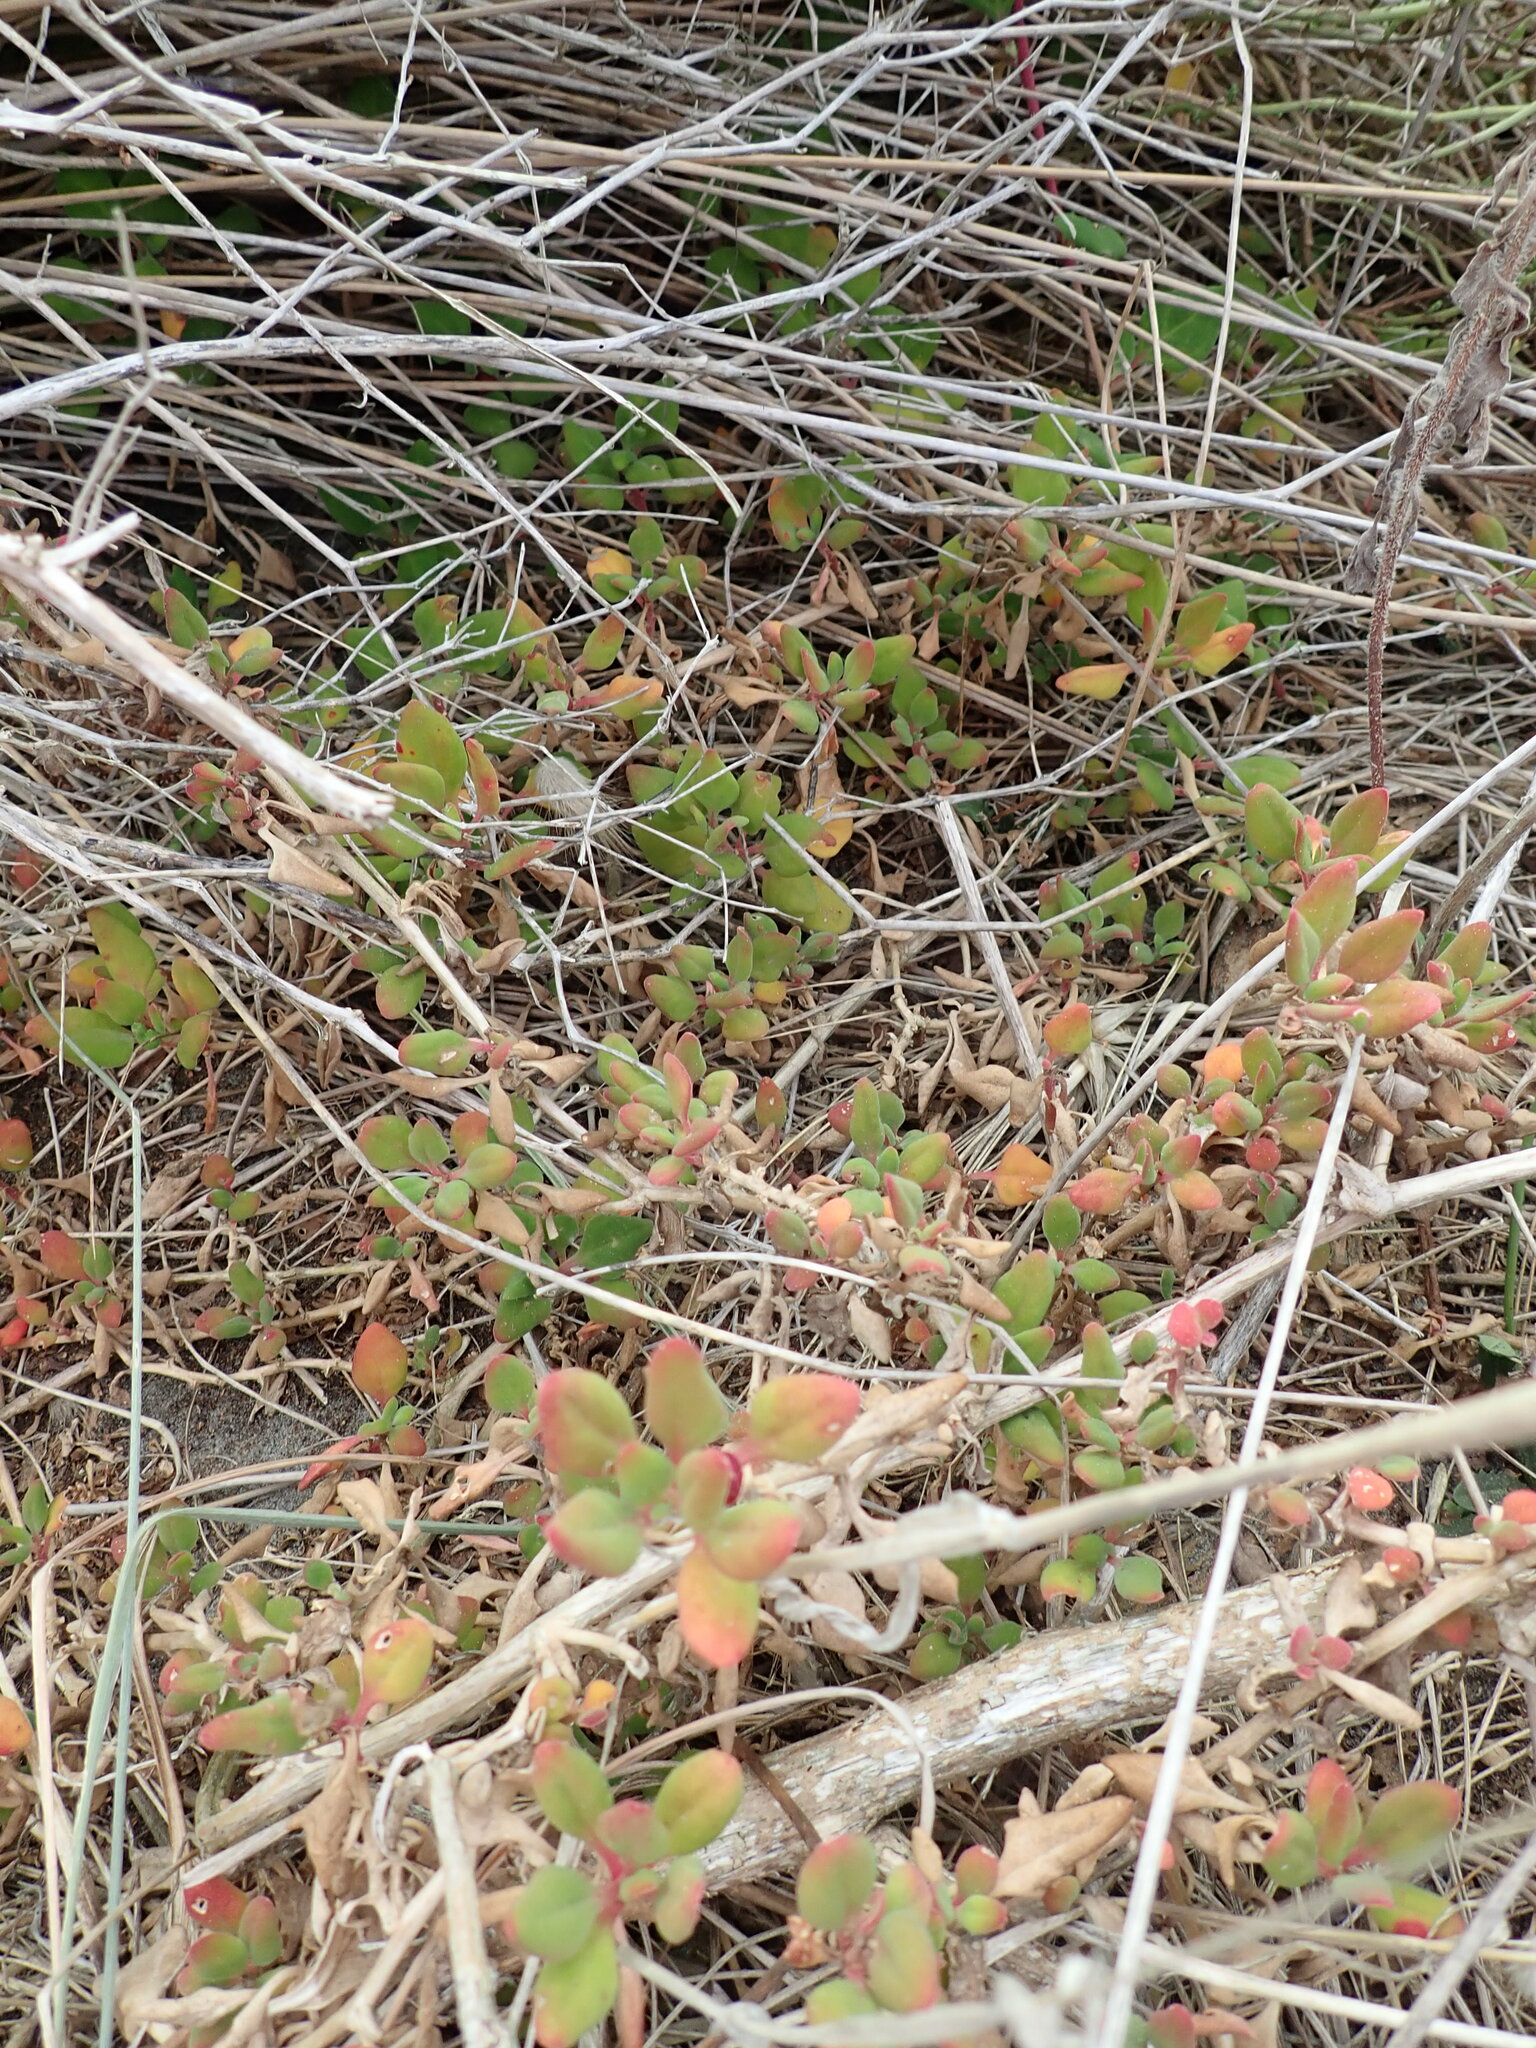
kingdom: Plantae
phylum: Tracheophyta
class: Magnoliopsida
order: Caryophyllales
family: Aizoaceae
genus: Tetragonia
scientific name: Tetragonia implexicoma
